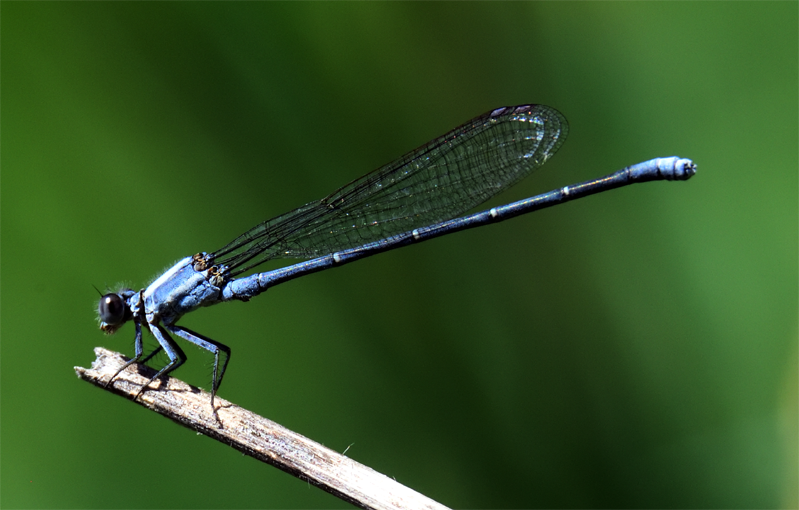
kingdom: Animalia
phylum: Arthropoda
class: Insecta
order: Odonata
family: Coenagrionidae
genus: Argia
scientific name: Argia moesta
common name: Powdered dancer
